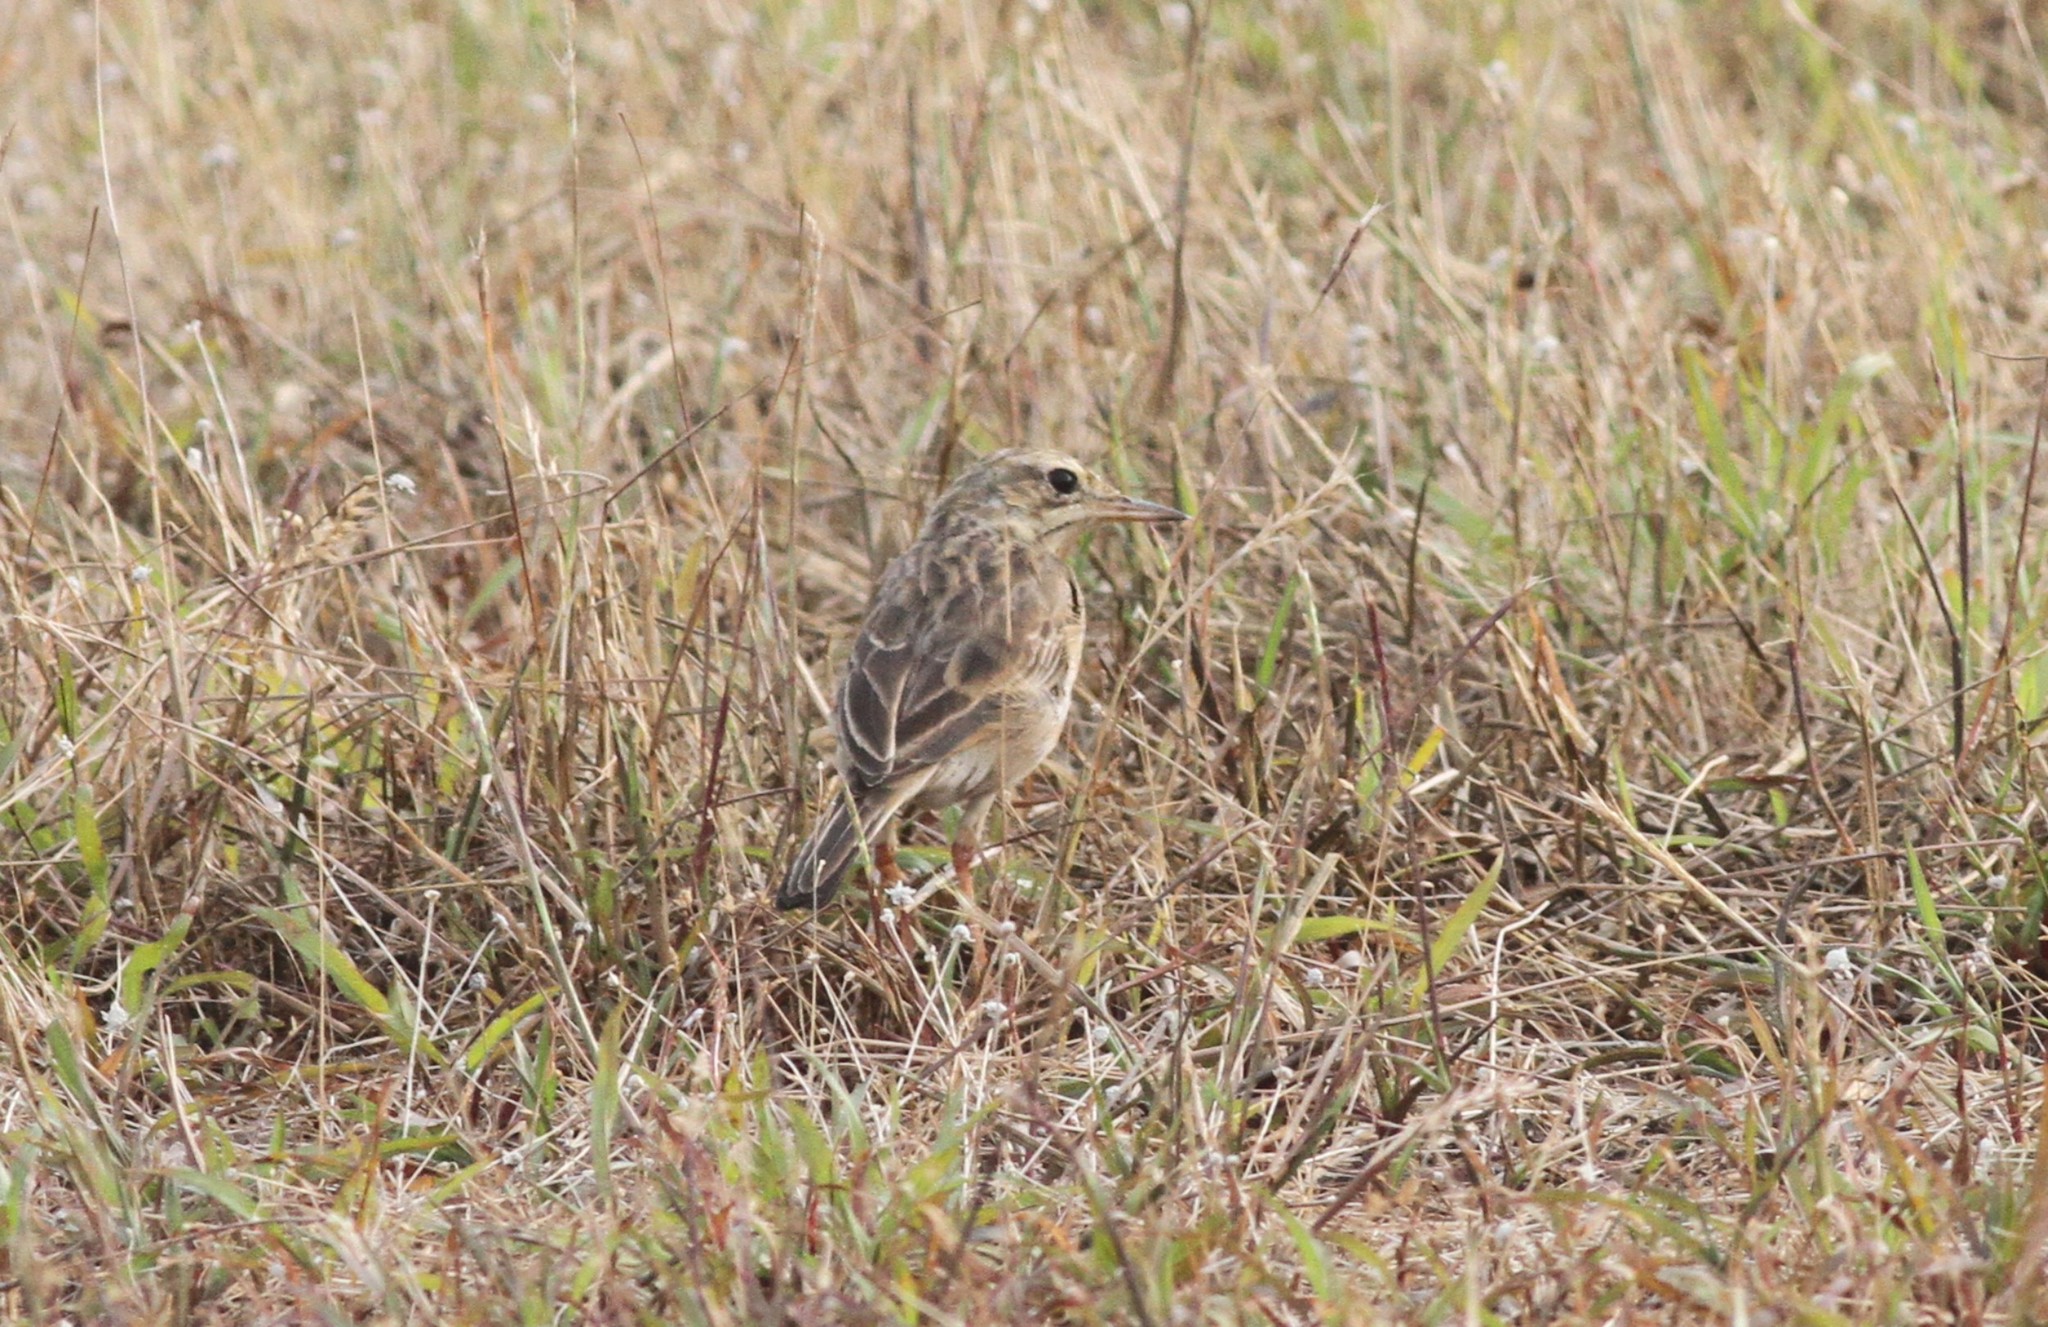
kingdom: Animalia
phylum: Chordata
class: Aves
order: Passeriformes
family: Motacillidae
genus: Anthus
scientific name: Anthus rufulus
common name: Paddyfield pipit
